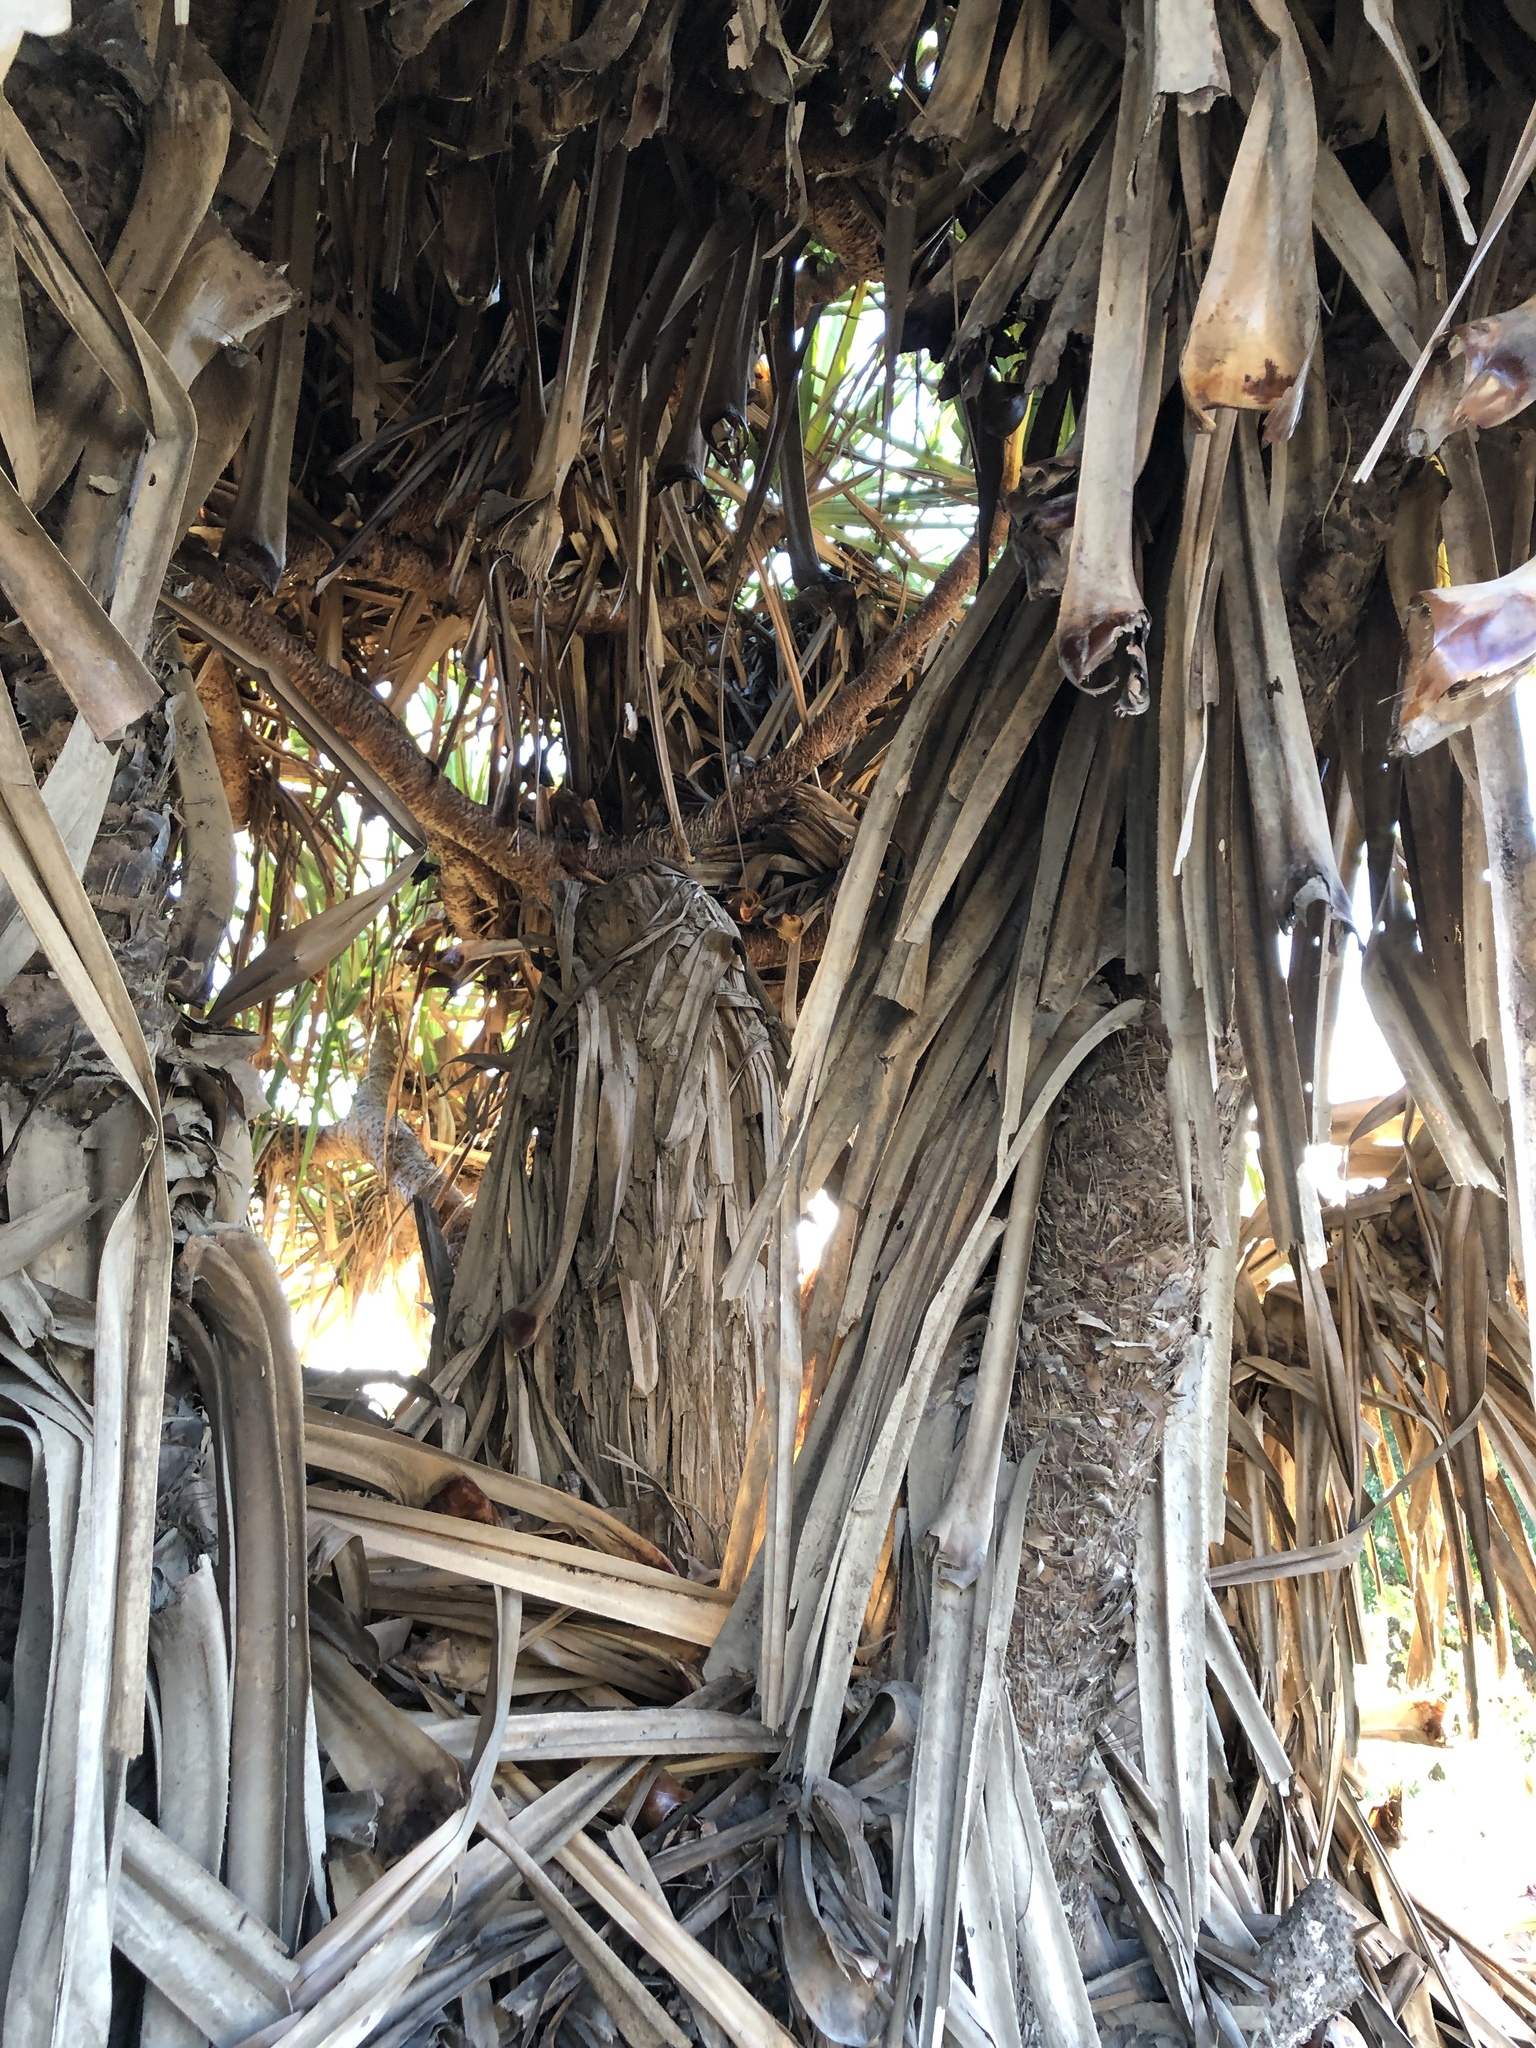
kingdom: Plantae
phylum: Tracheophyta
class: Liliopsida
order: Pandanales
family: Pandanaceae
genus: Pandanus
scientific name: Pandanus tectorius
